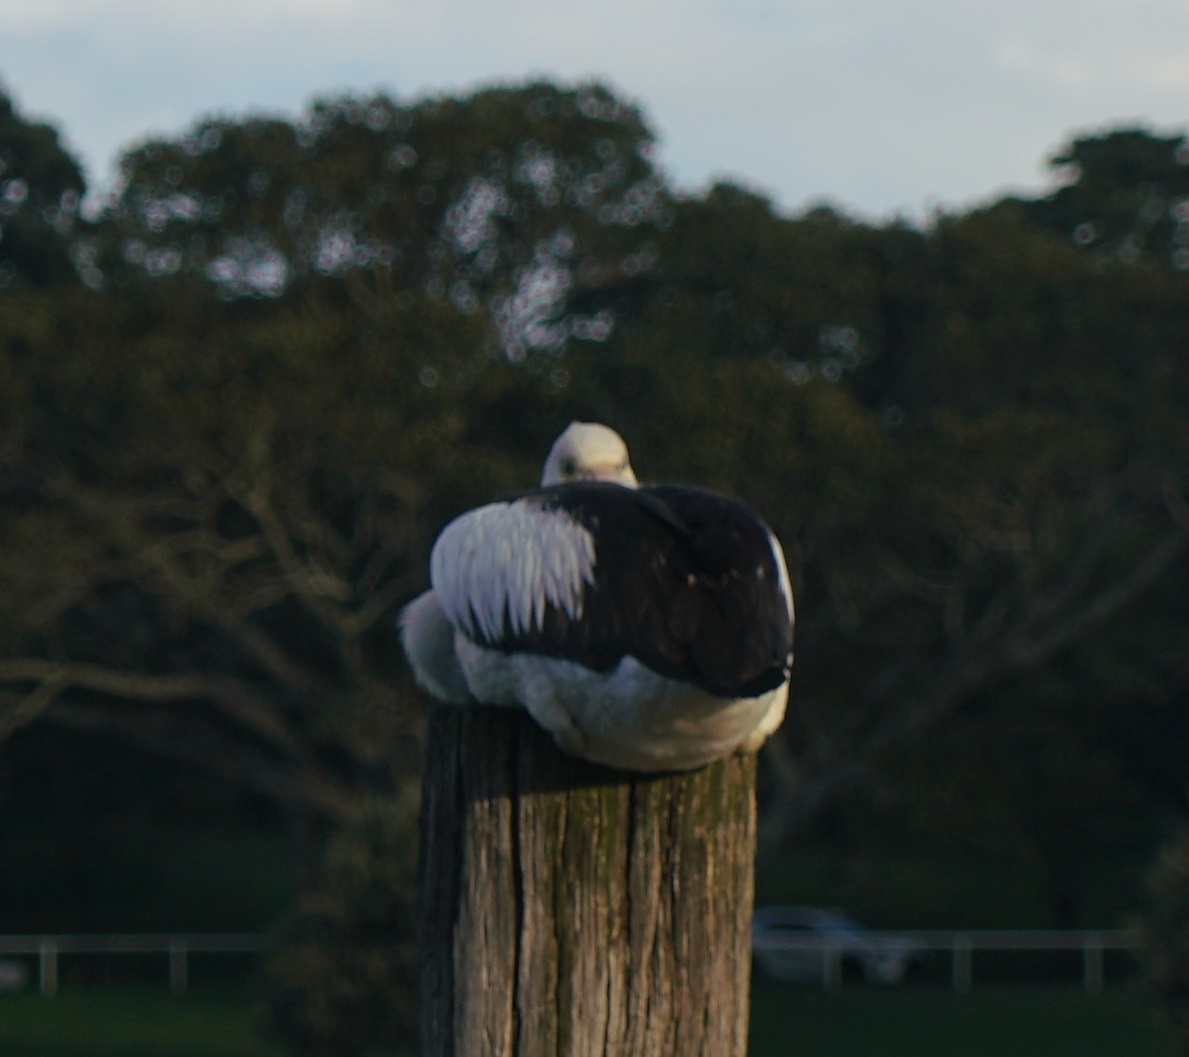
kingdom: Animalia
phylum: Chordata
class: Aves
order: Pelecaniformes
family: Pelecanidae
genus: Pelecanus
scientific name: Pelecanus conspicillatus
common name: Australian pelican
